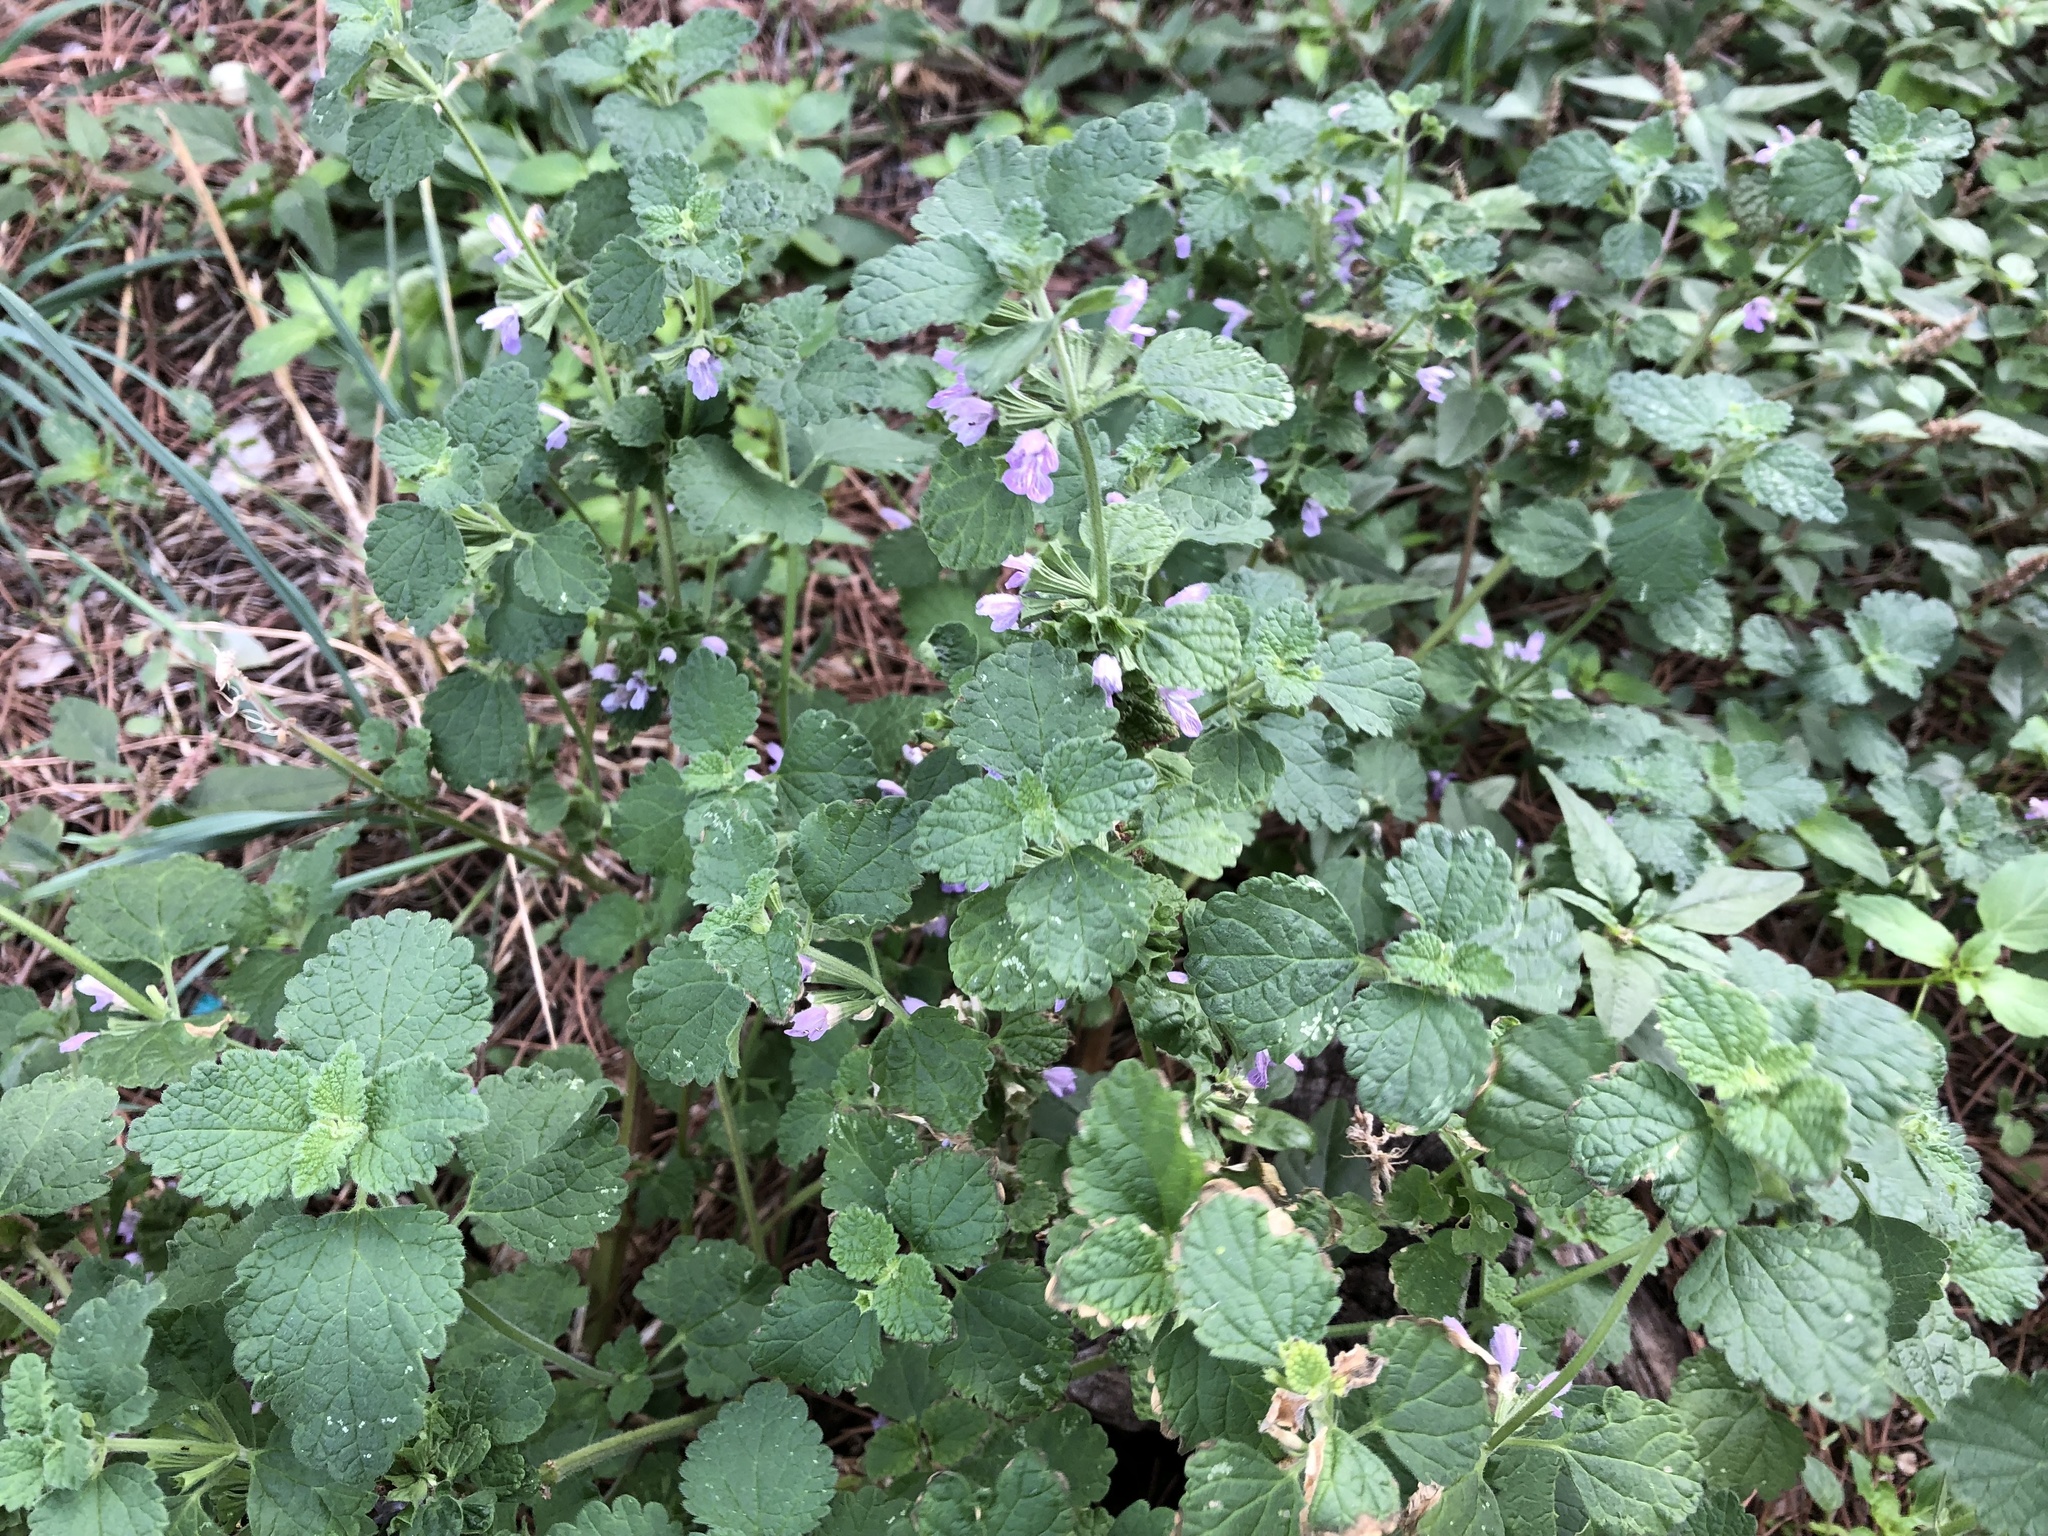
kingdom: Plantae
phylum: Tracheophyta
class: Magnoliopsida
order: Lamiales
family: Lamiaceae
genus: Ballota
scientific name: Ballota nigra
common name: Black horehound
